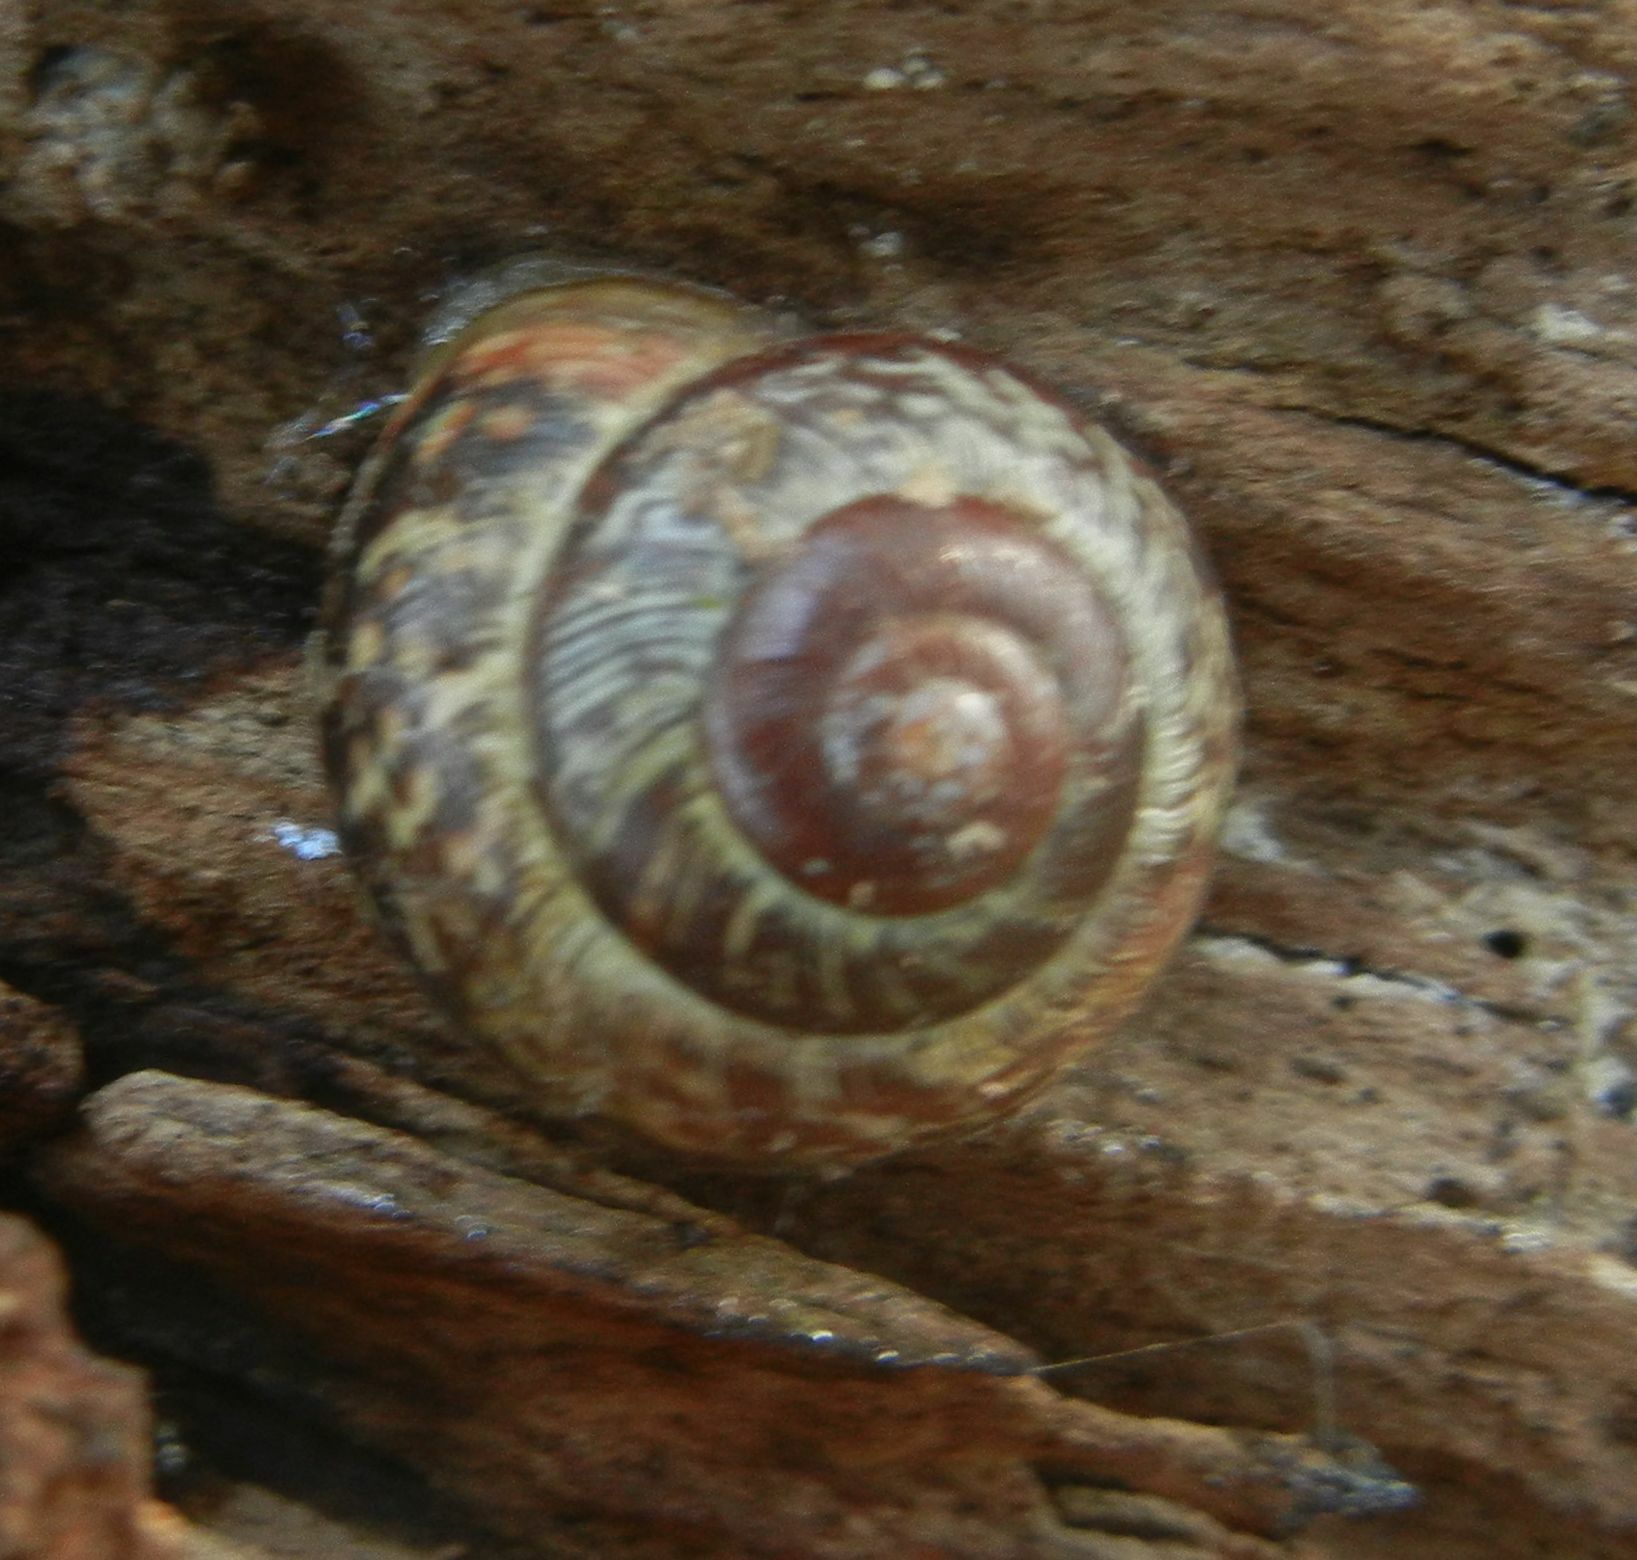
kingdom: Animalia
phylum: Mollusca
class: Gastropoda
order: Stylommatophora
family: Helicidae
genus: Arianta
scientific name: Arianta arbustorum
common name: Copse snail
